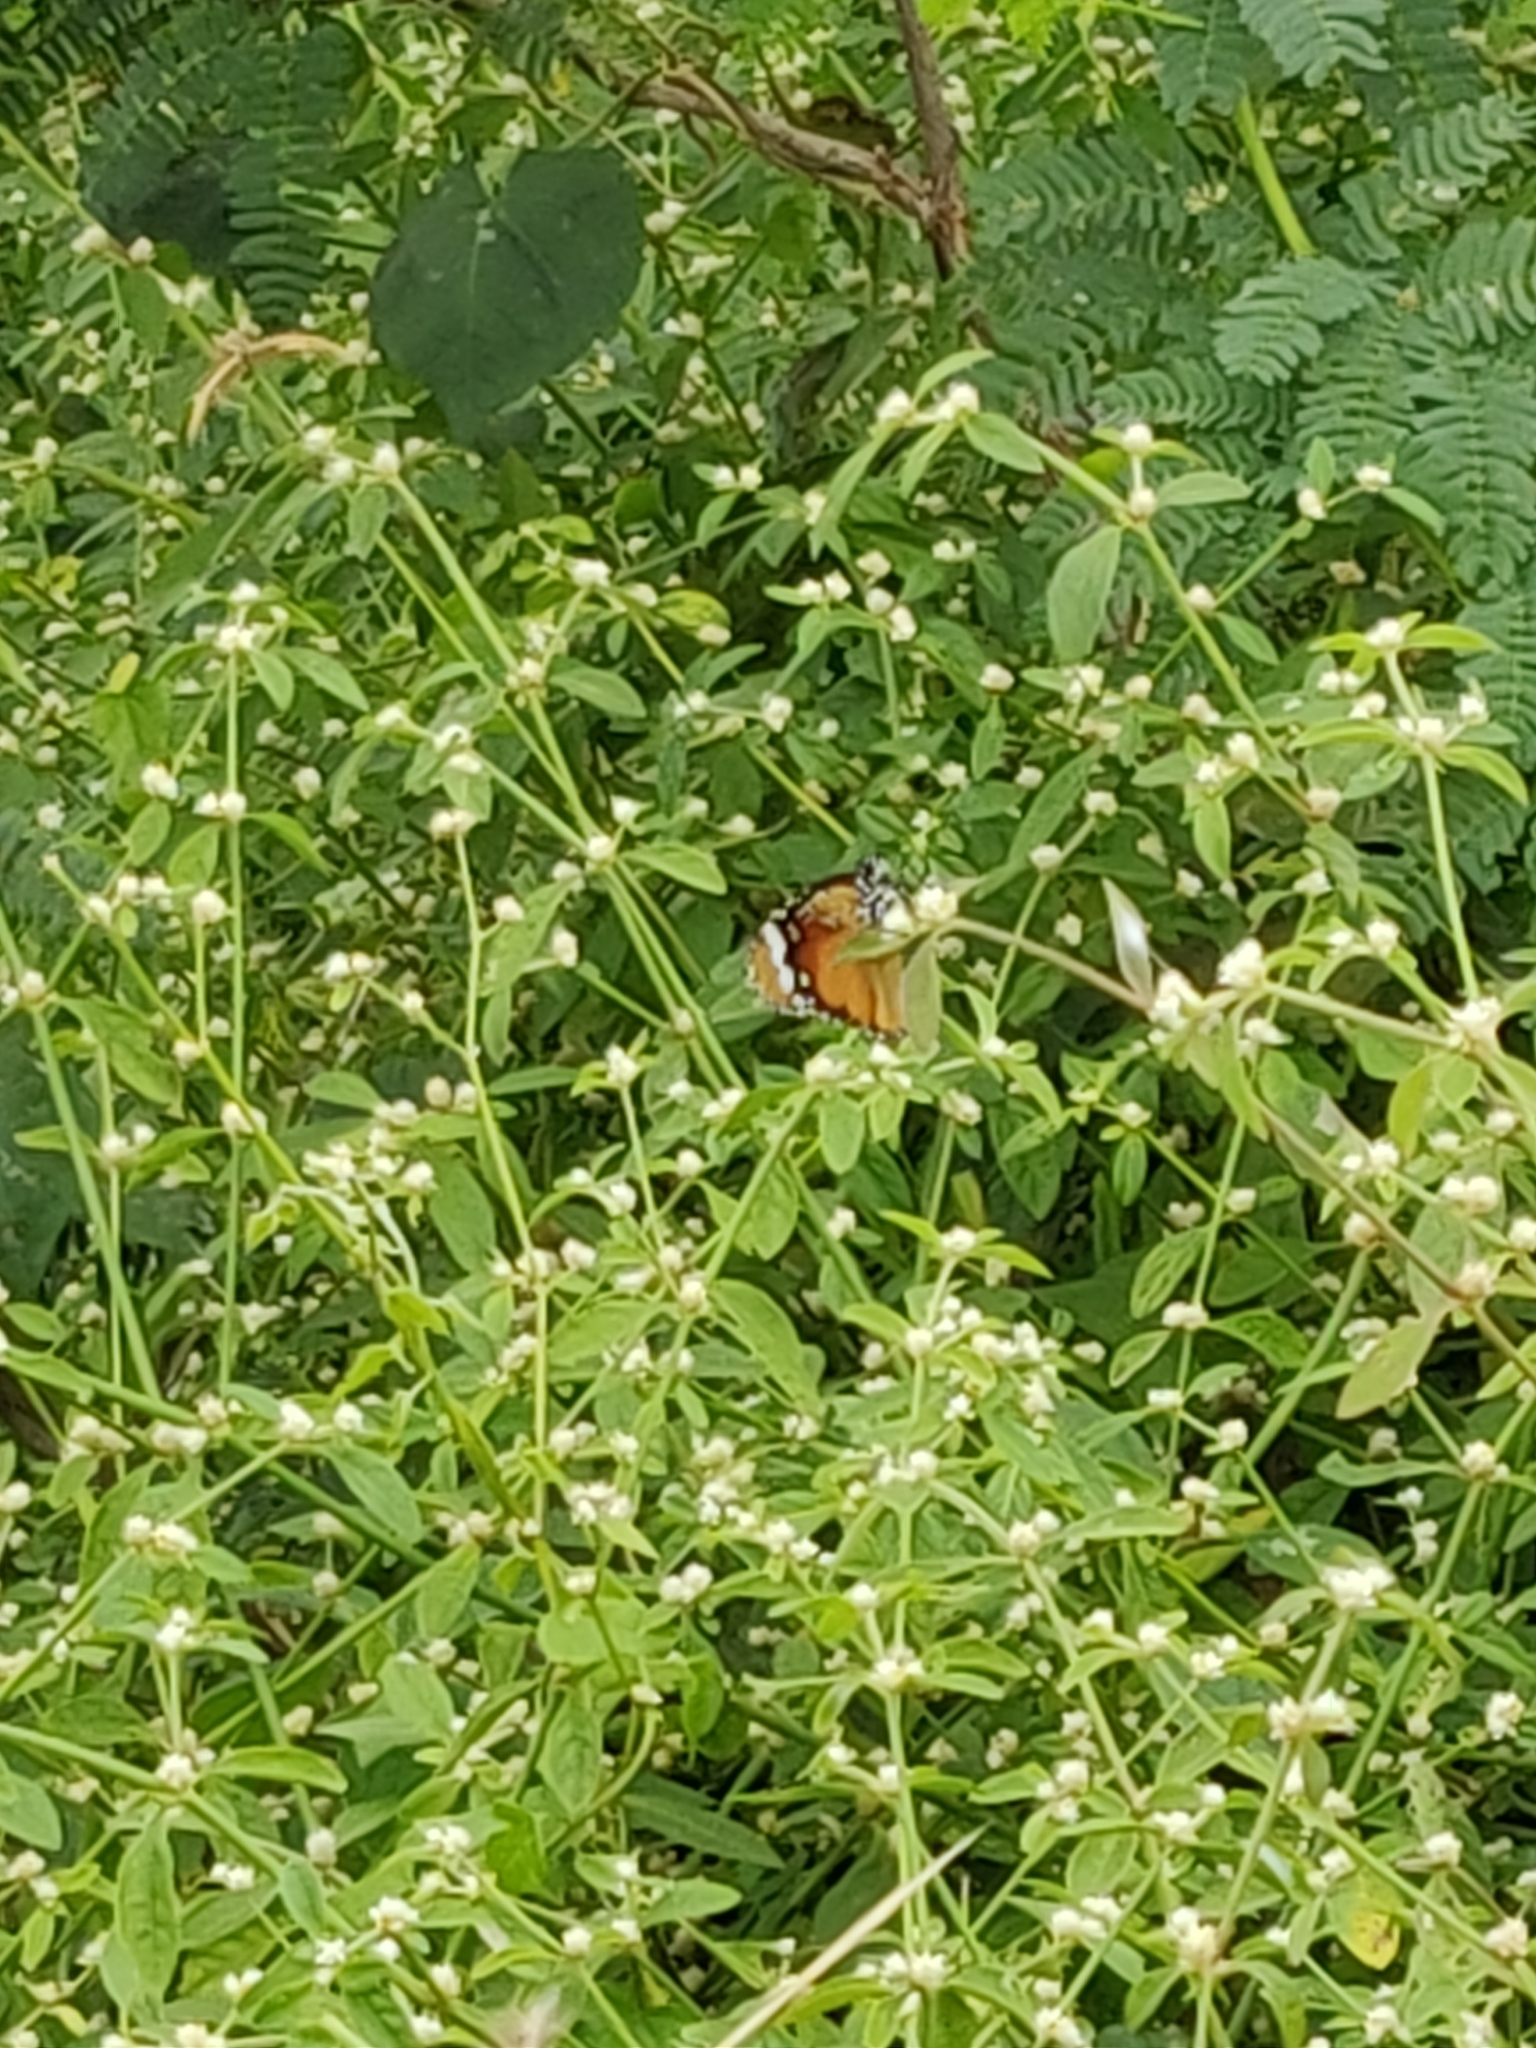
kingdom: Animalia
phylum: Arthropoda
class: Insecta
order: Lepidoptera
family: Nymphalidae
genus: Danaus
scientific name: Danaus chrysippus
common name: Plain tiger
